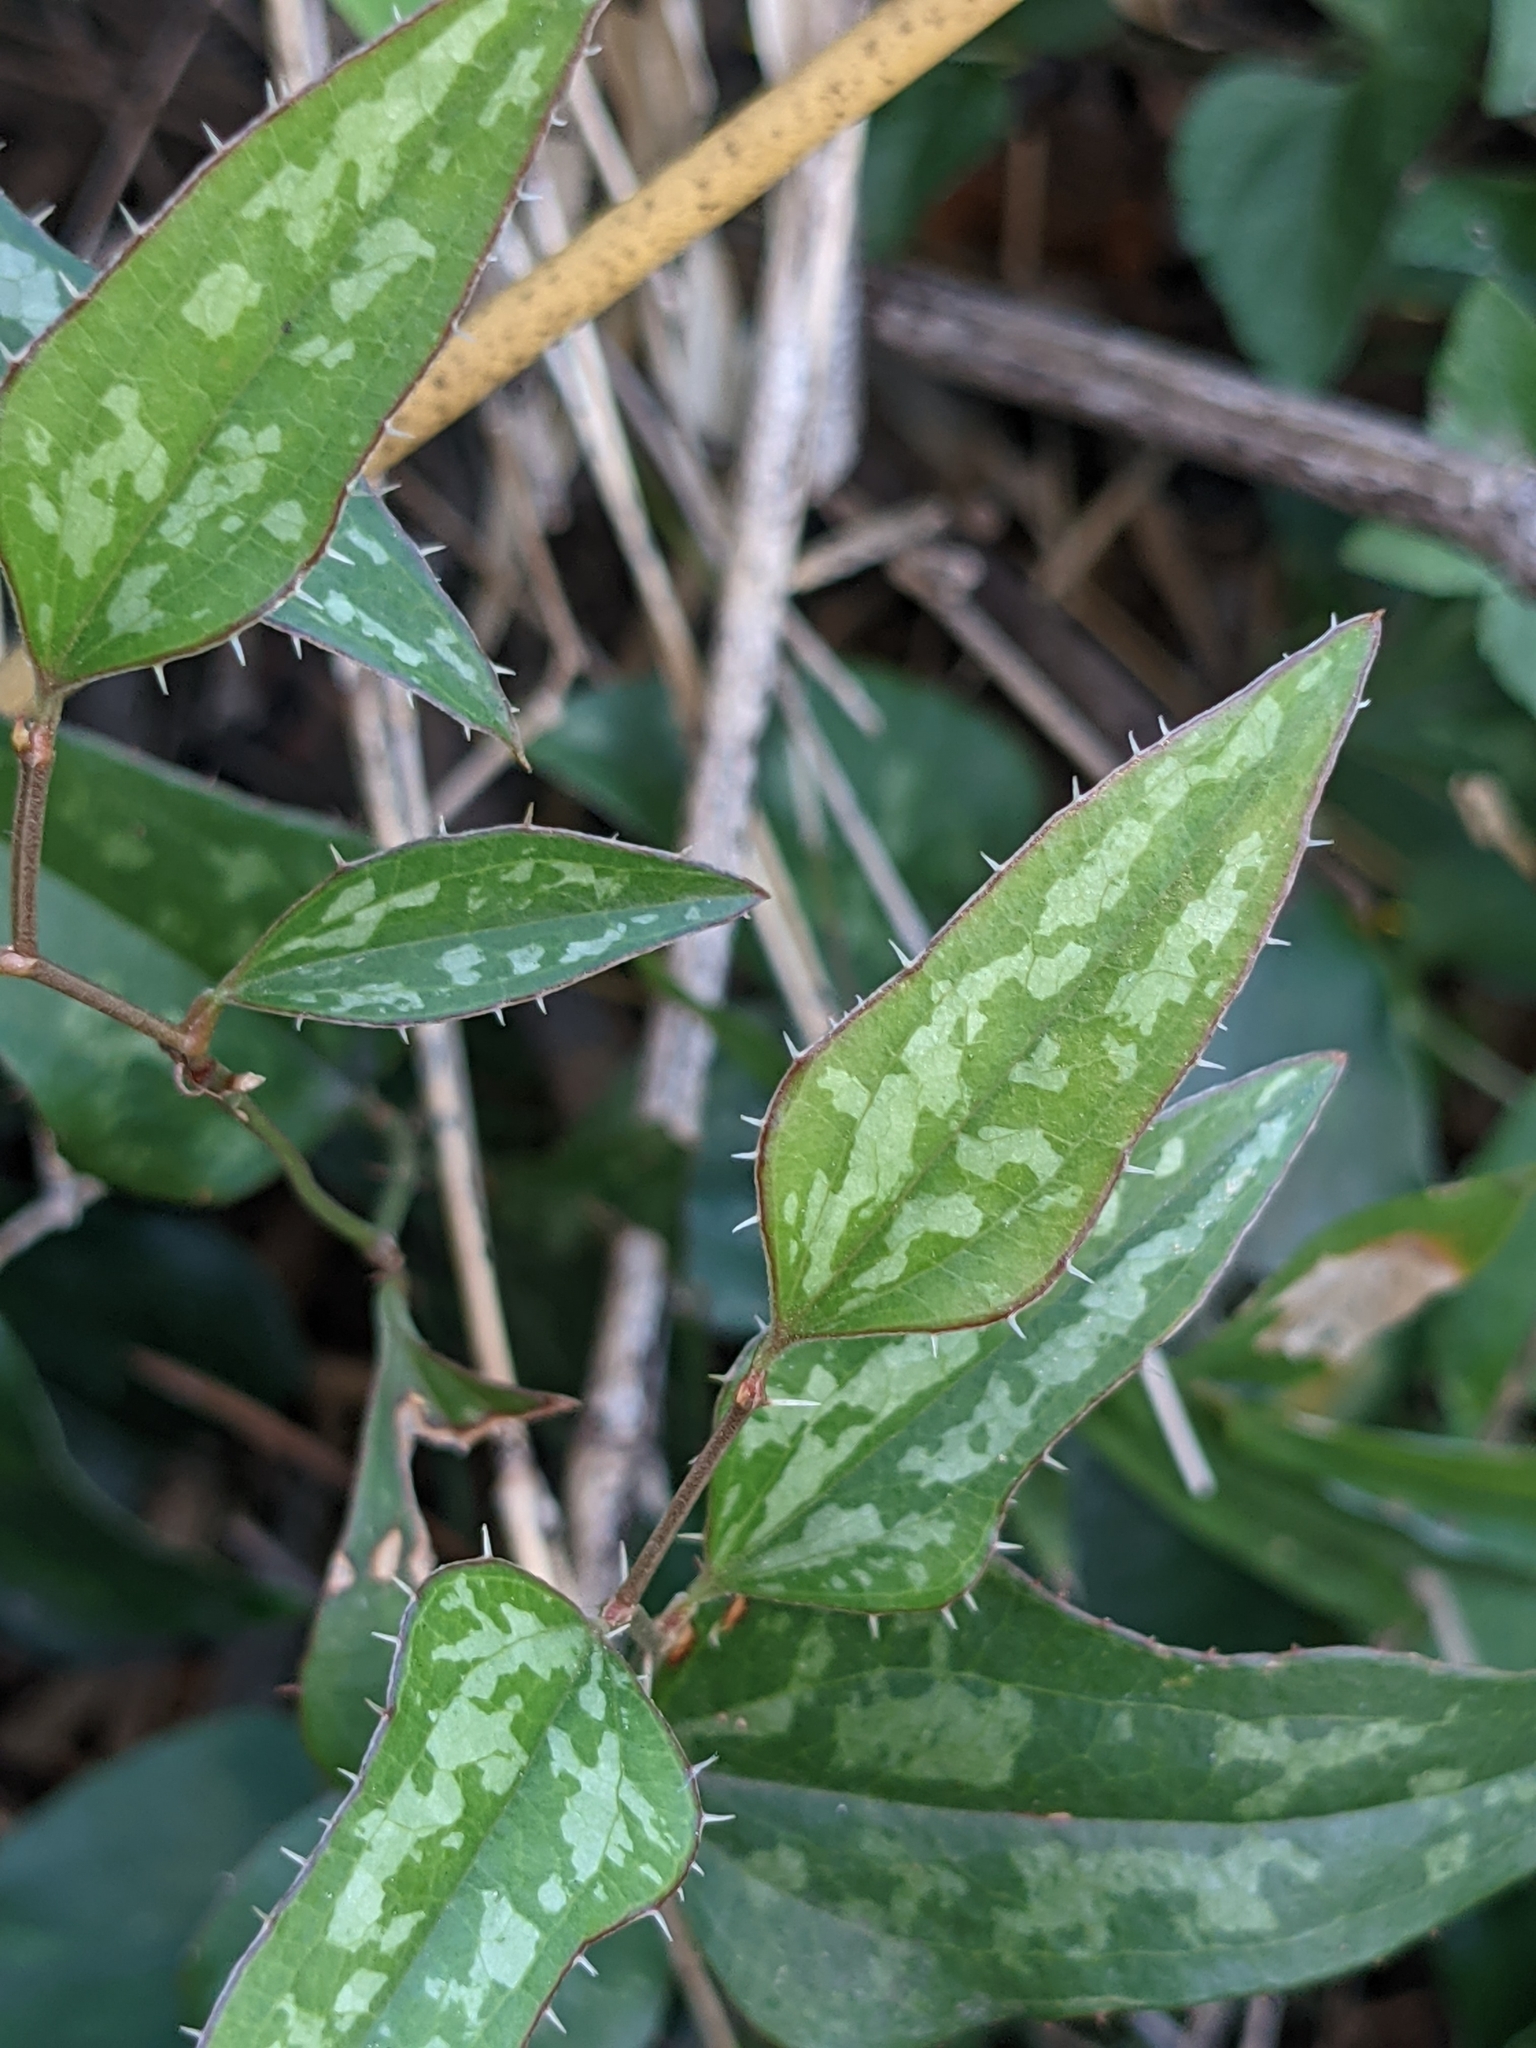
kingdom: Plantae
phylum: Tracheophyta
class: Liliopsida
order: Liliales
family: Smilacaceae
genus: Smilax
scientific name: Smilax bona-nox
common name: Catbrier
